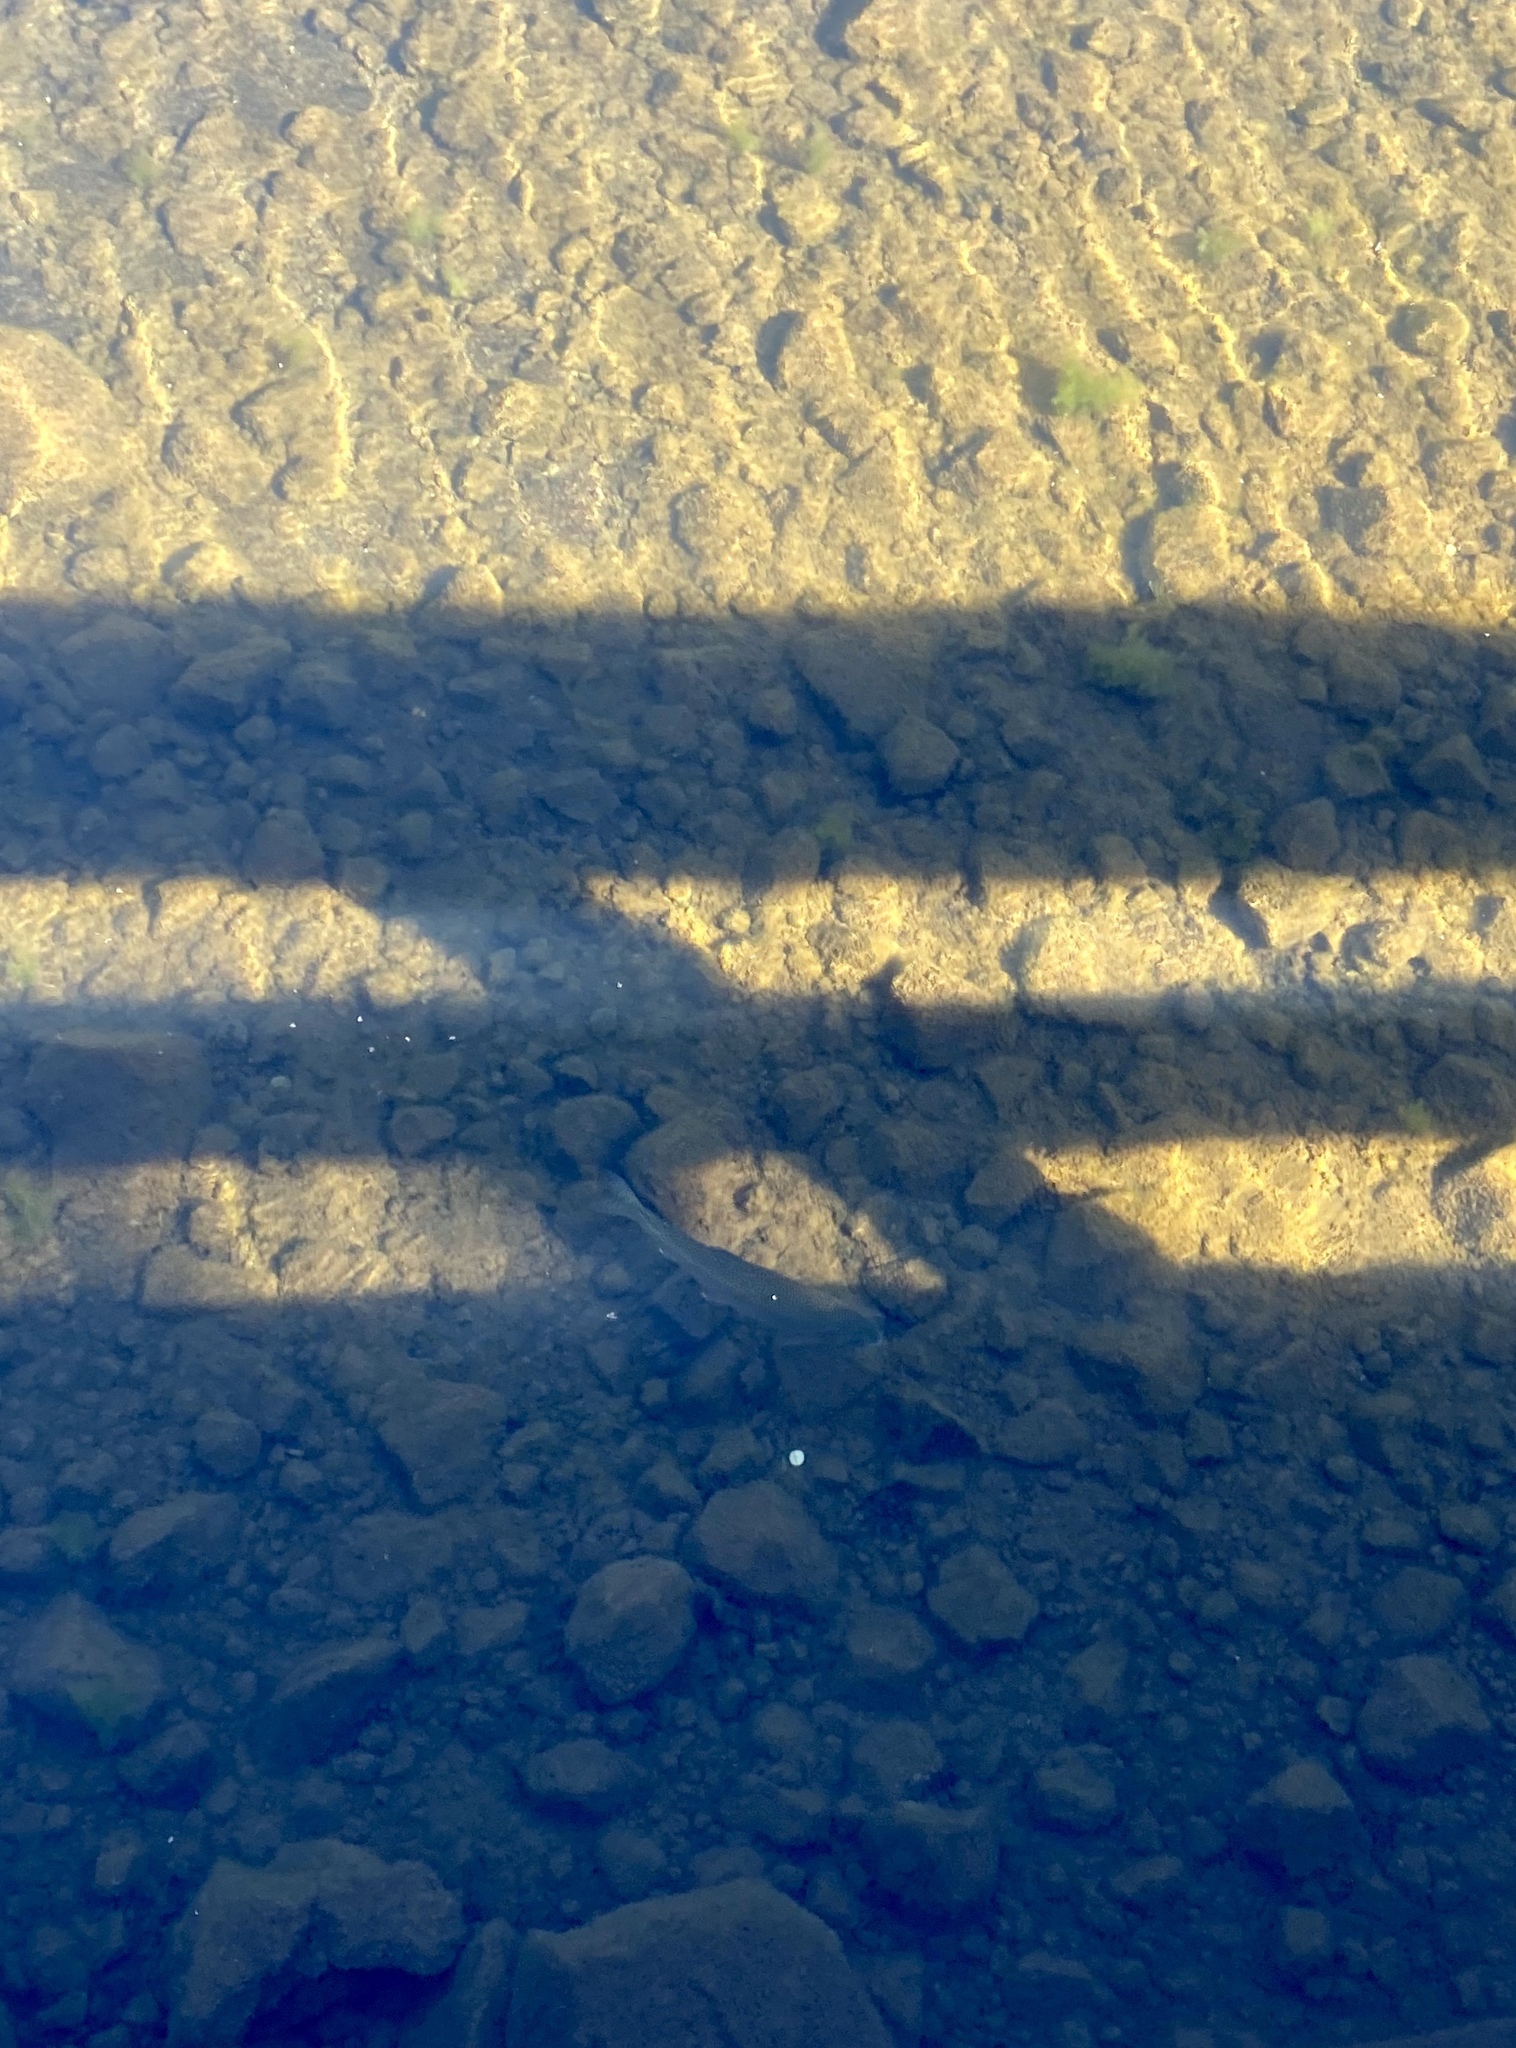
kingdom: Animalia
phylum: Chordata
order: Salmoniformes
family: Salmonidae
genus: Oncorhynchus
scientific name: Oncorhynchus mykiss
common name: Rainbow trout
